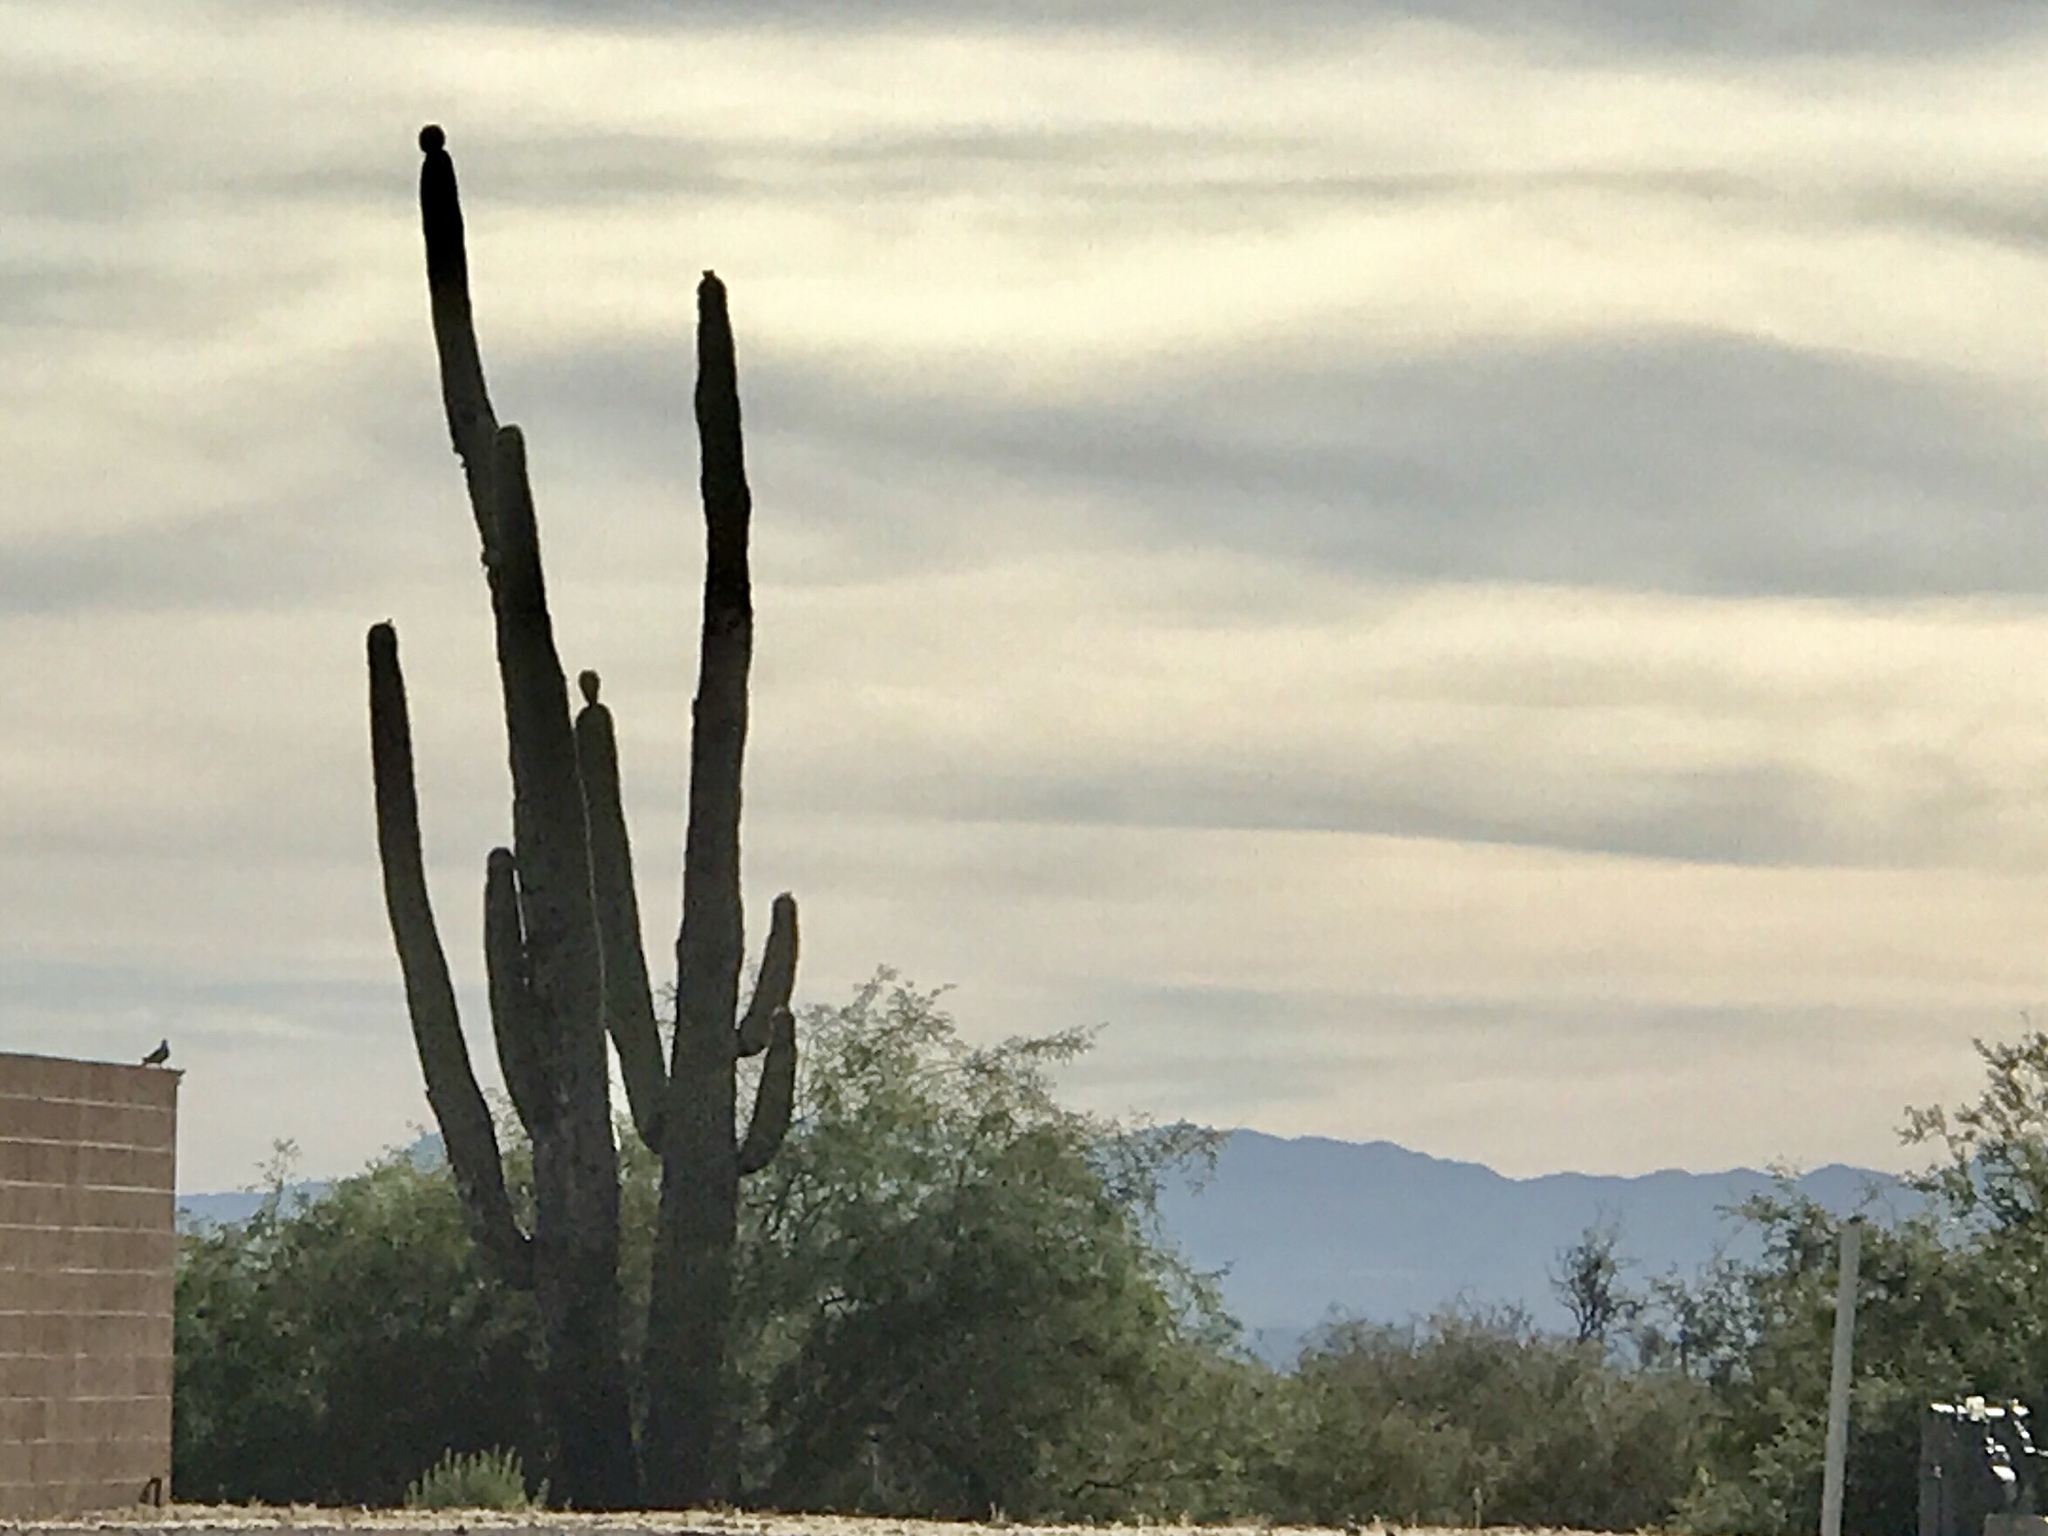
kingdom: Plantae
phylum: Tracheophyta
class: Magnoliopsida
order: Caryophyllales
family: Cactaceae
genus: Carnegiea
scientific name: Carnegiea gigantea
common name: Saguaro
